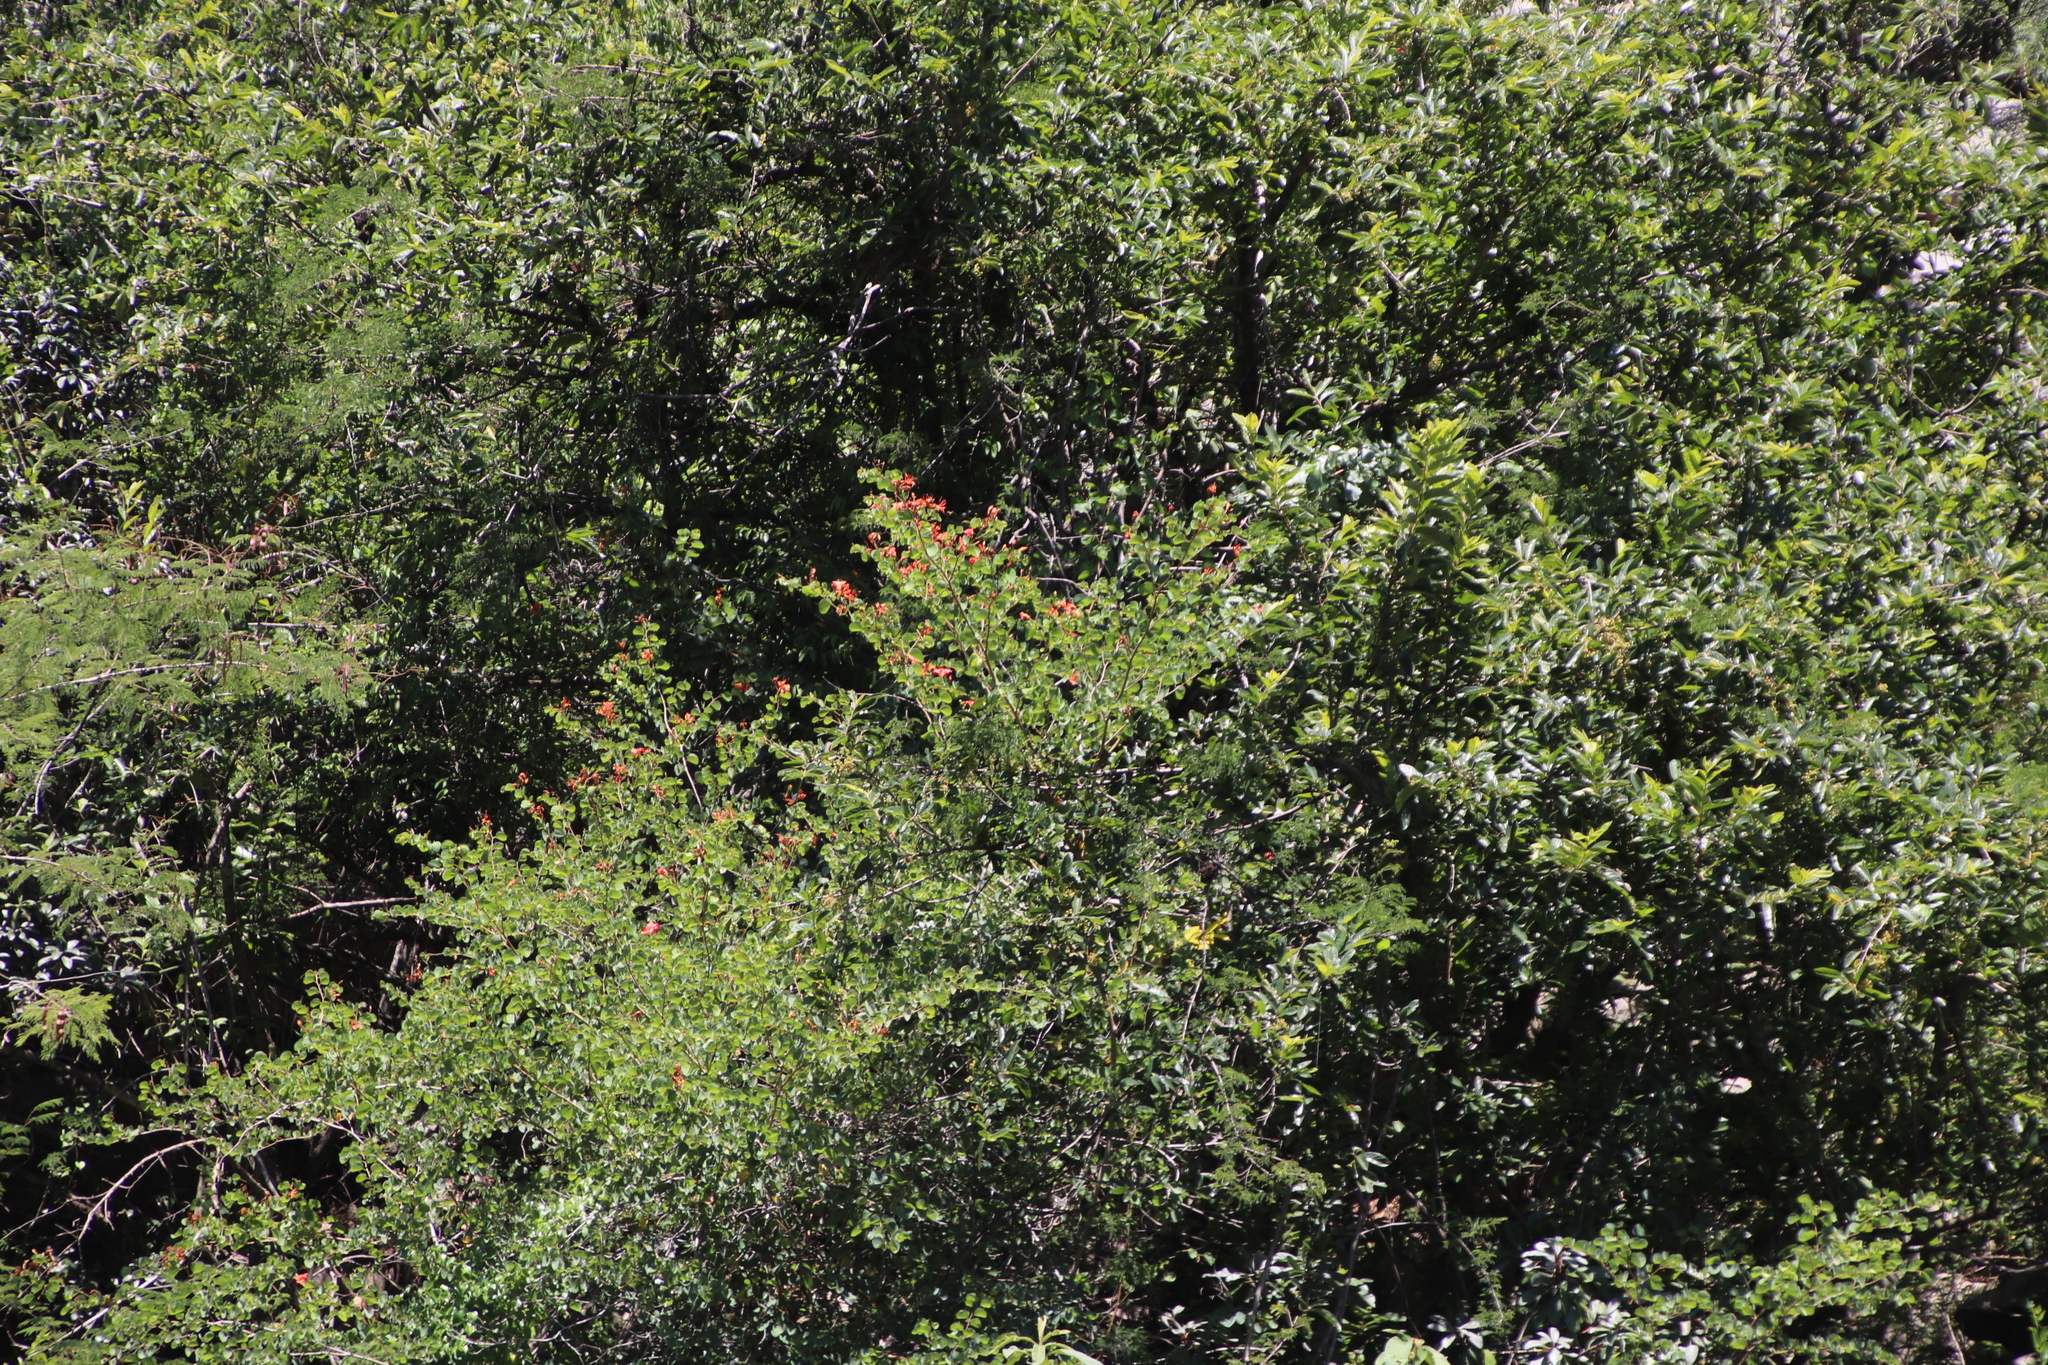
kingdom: Plantae
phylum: Tracheophyta
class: Magnoliopsida
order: Fabales
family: Fabaceae
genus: Bauhinia
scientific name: Bauhinia galpinii
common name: African plume
